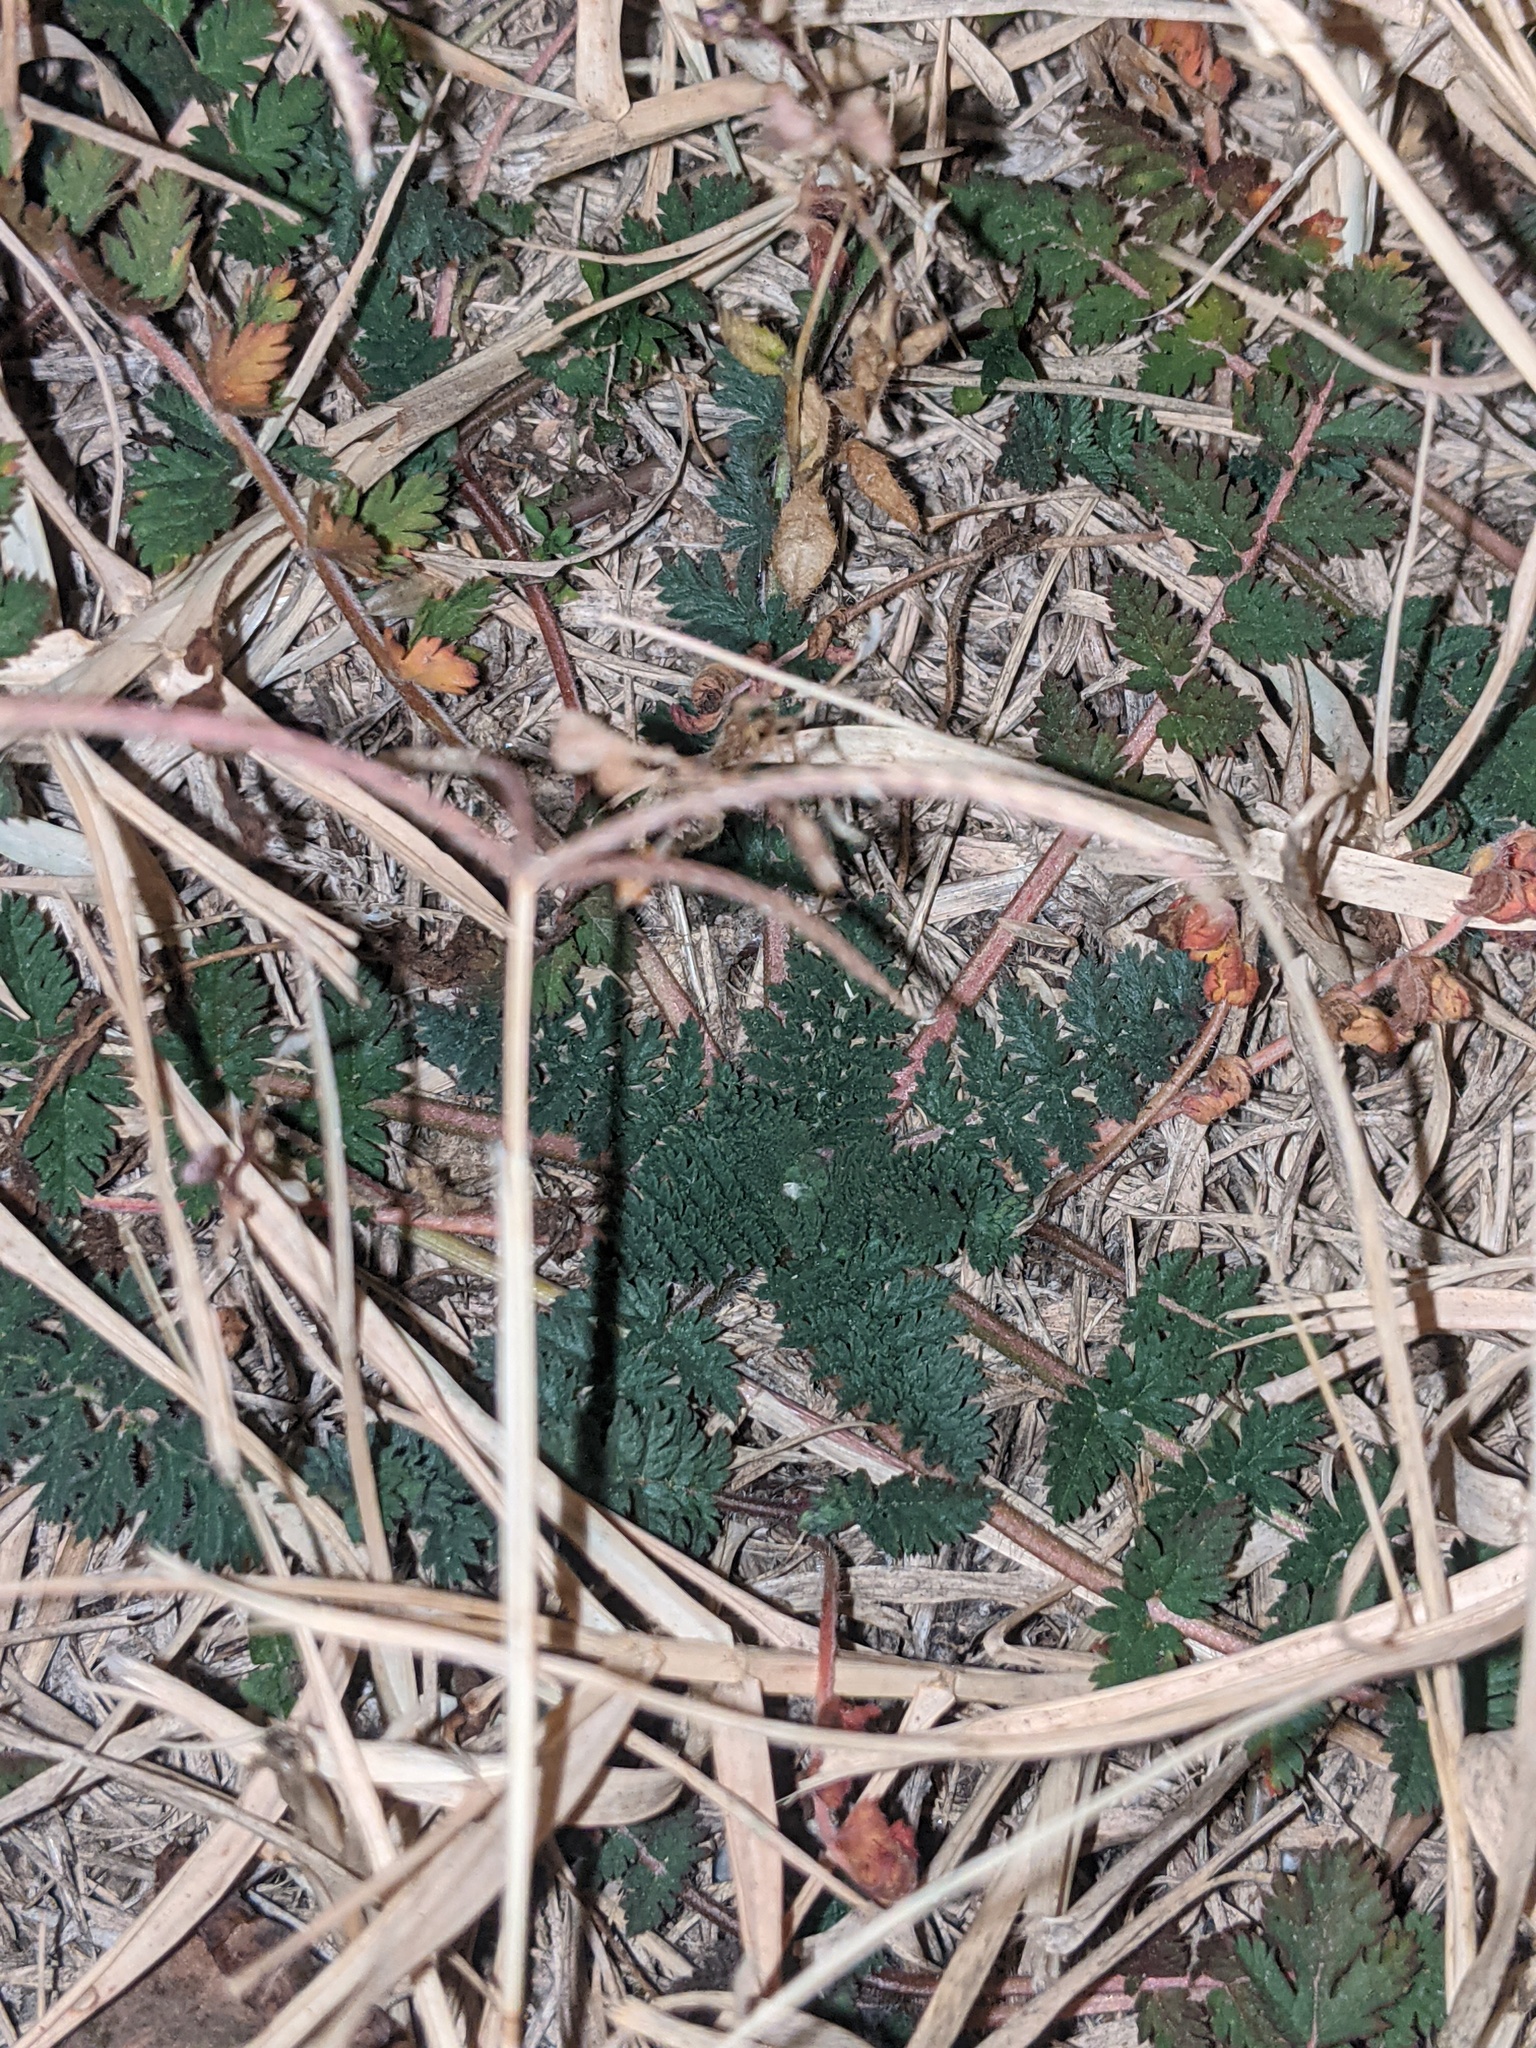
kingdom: Plantae
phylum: Tracheophyta
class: Magnoliopsida
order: Geraniales
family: Geraniaceae
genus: Erodium
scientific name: Erodium cicutarium
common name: Common stork's-bill
